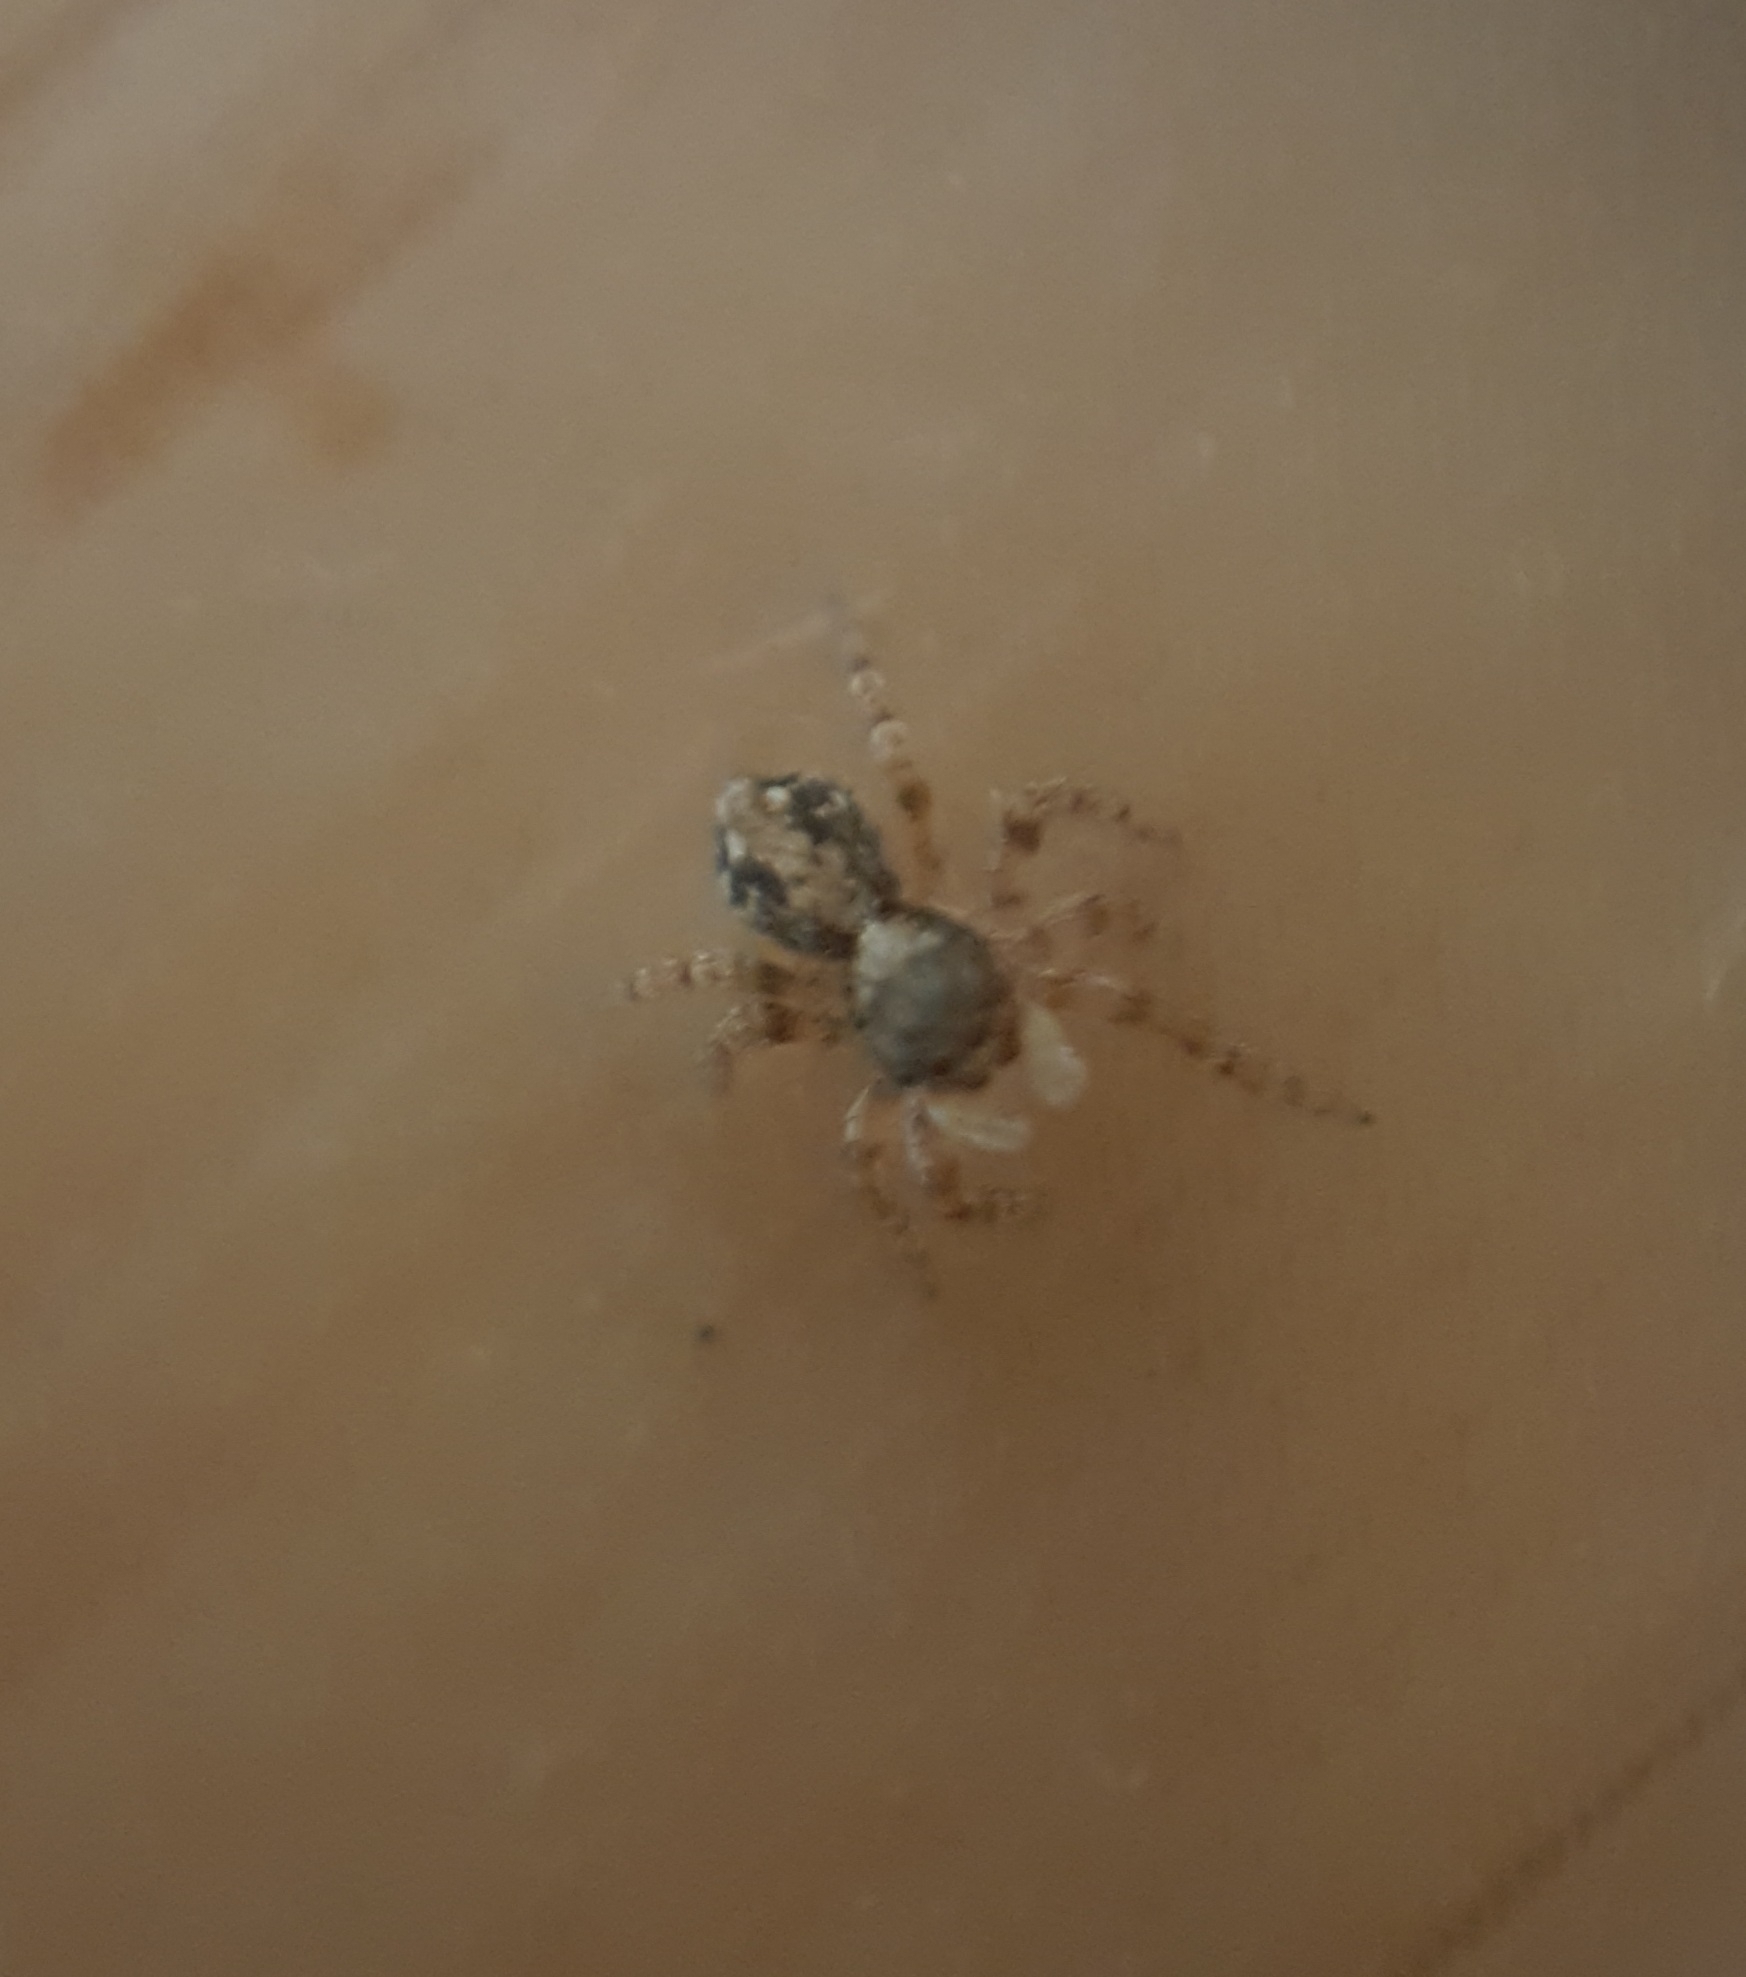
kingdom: Animalia
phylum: Arthropoda
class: Arachnida
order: Araneae
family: Salticidae
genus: Pseudeuophrys
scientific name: Pseudeuophrys lanigera
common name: Jumping spider
